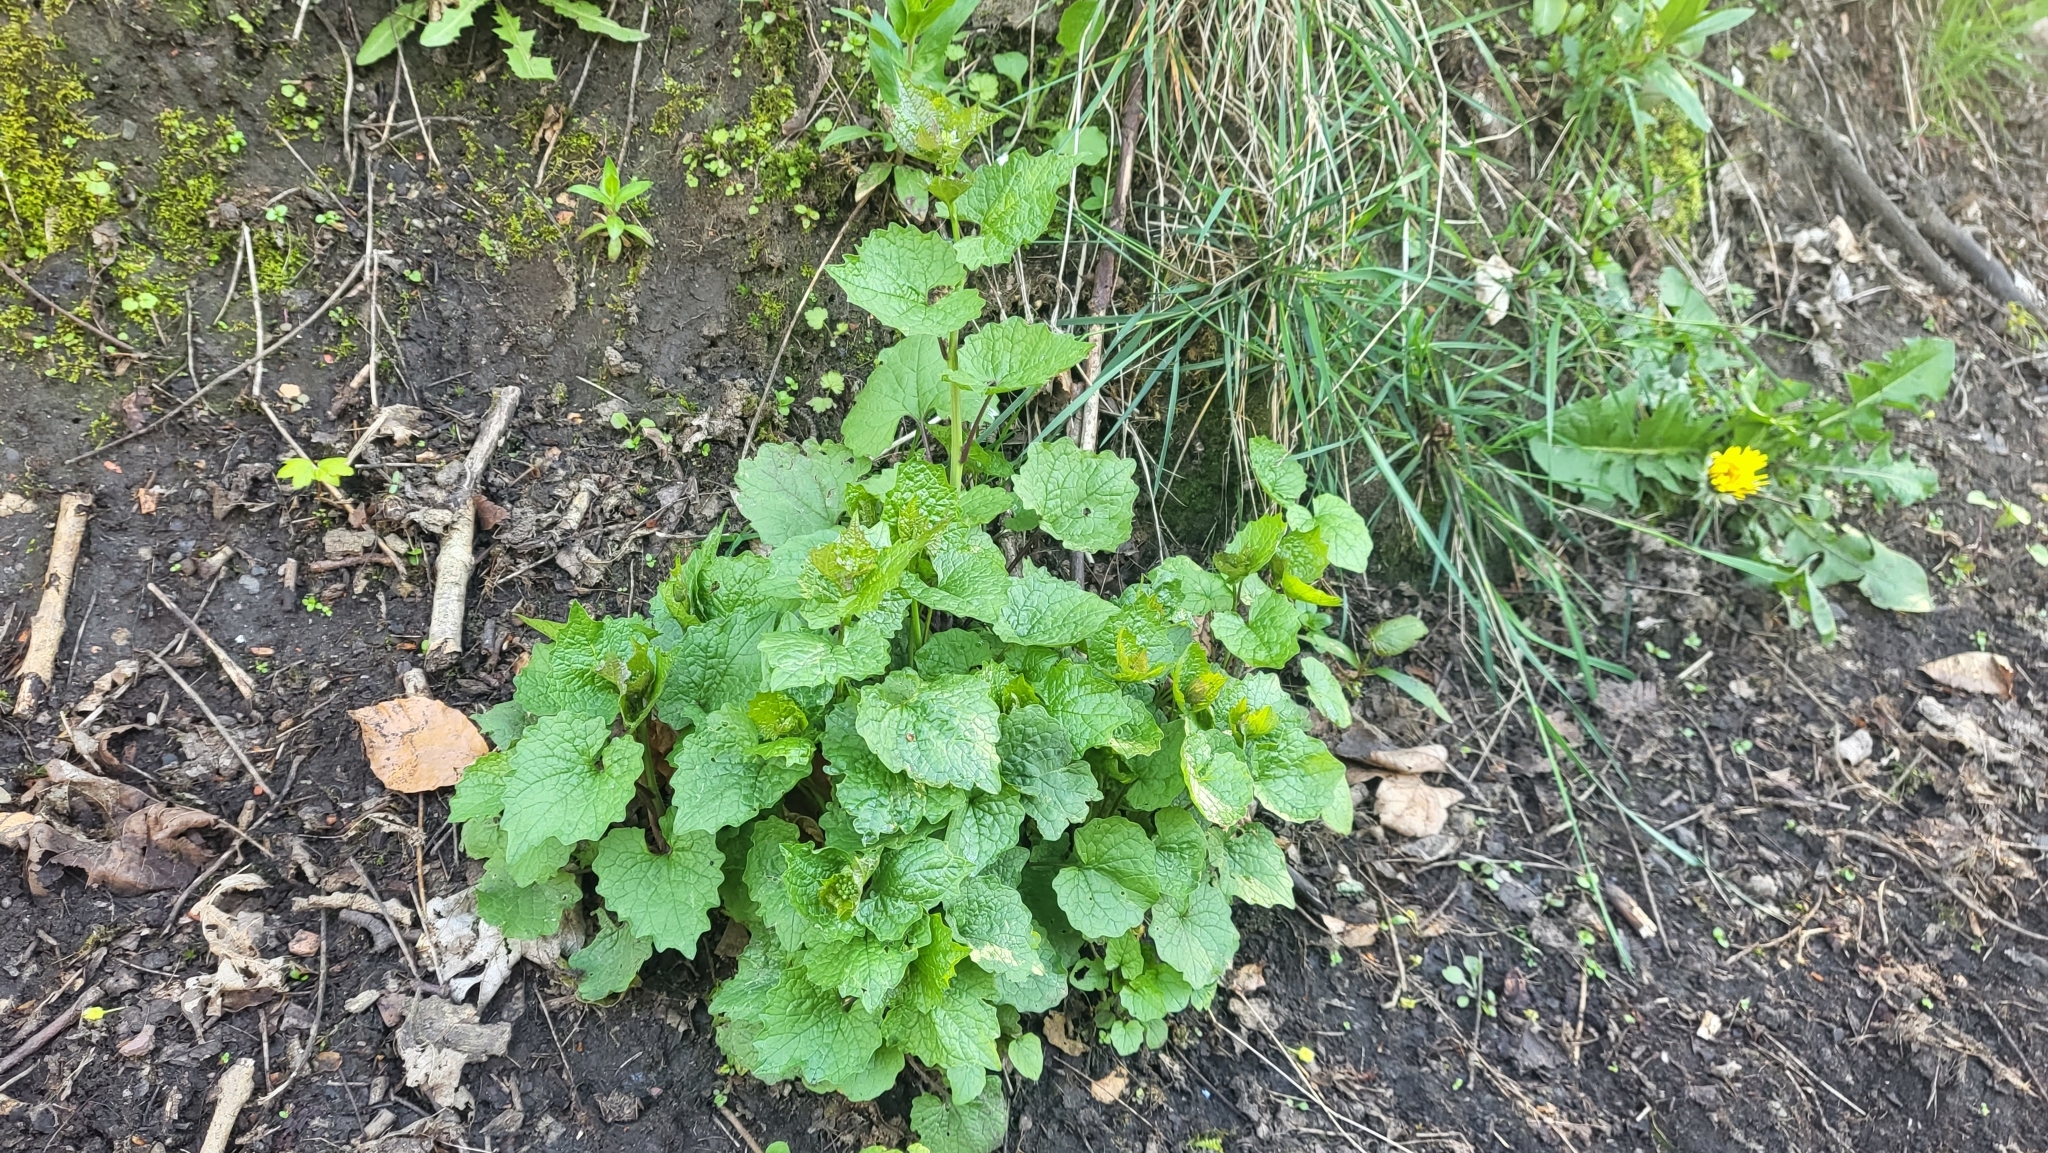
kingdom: Plantae
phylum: Tracheophyta
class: Magnoliopsida
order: Brassicales
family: Brassicaceae
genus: Alliaria
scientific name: Alliaria petiolata
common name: Garlic mustard
